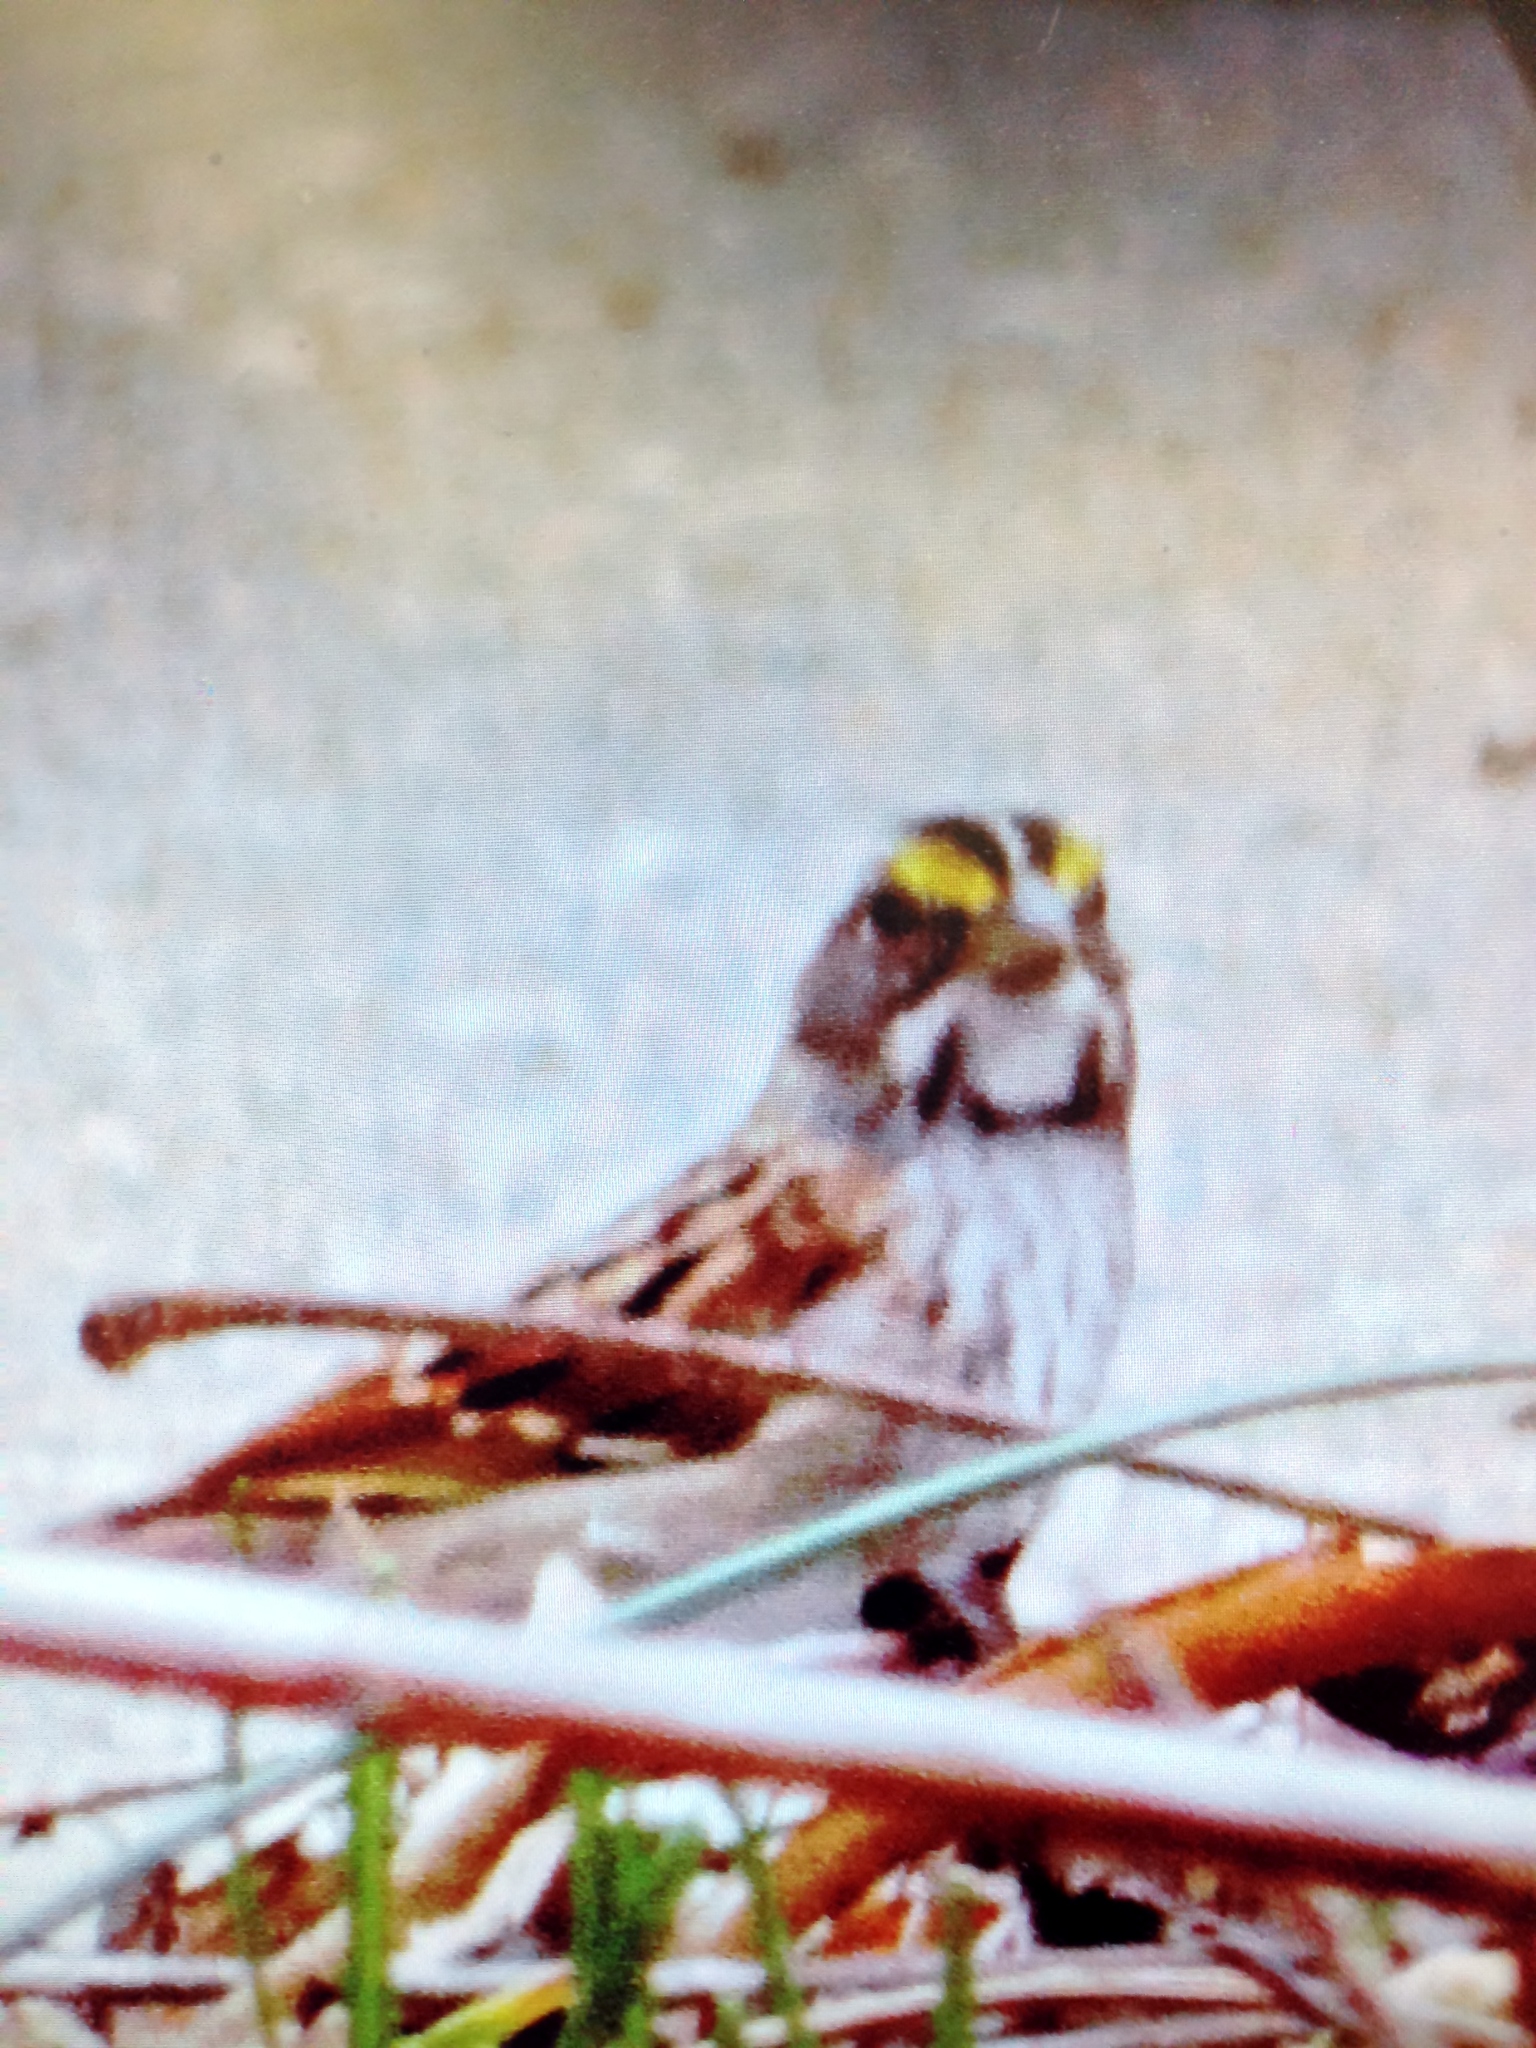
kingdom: Animalia
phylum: Chordata
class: Aves
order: Passeriformes
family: Passerellidae
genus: Zonotrichia
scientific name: Zonotrichia albicollis
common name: White-throated sparrow
